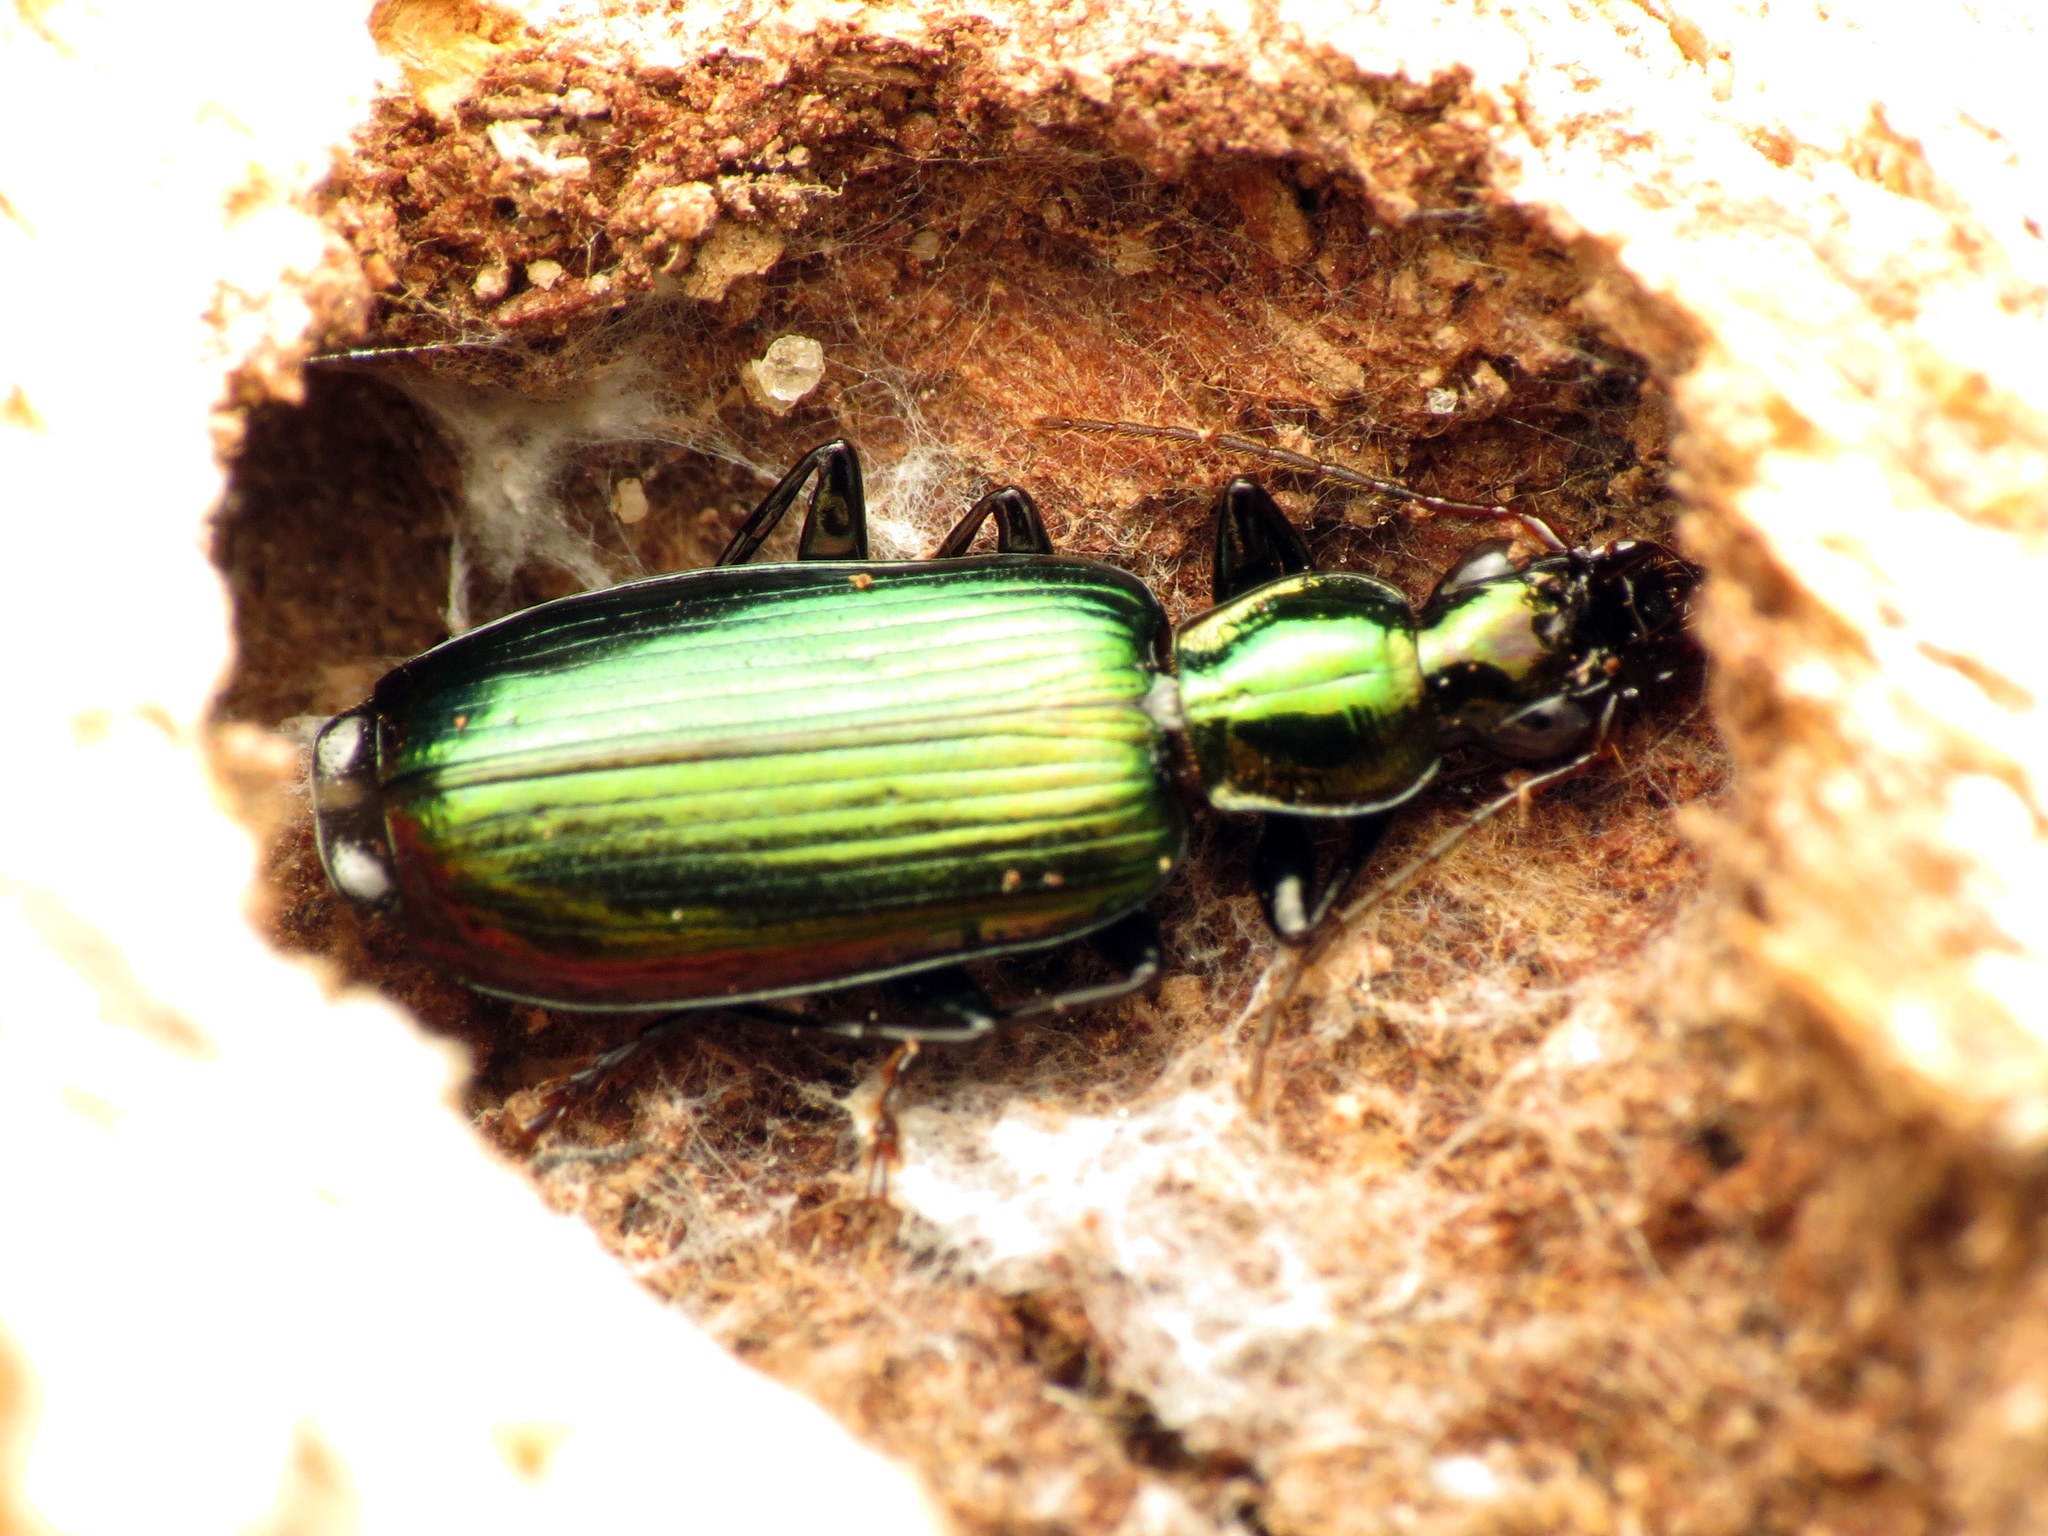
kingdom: Animalia
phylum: Arthropoda
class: Insecta
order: Coleoptera
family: Carabidae
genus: Calleida
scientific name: Calleida viridipennis
